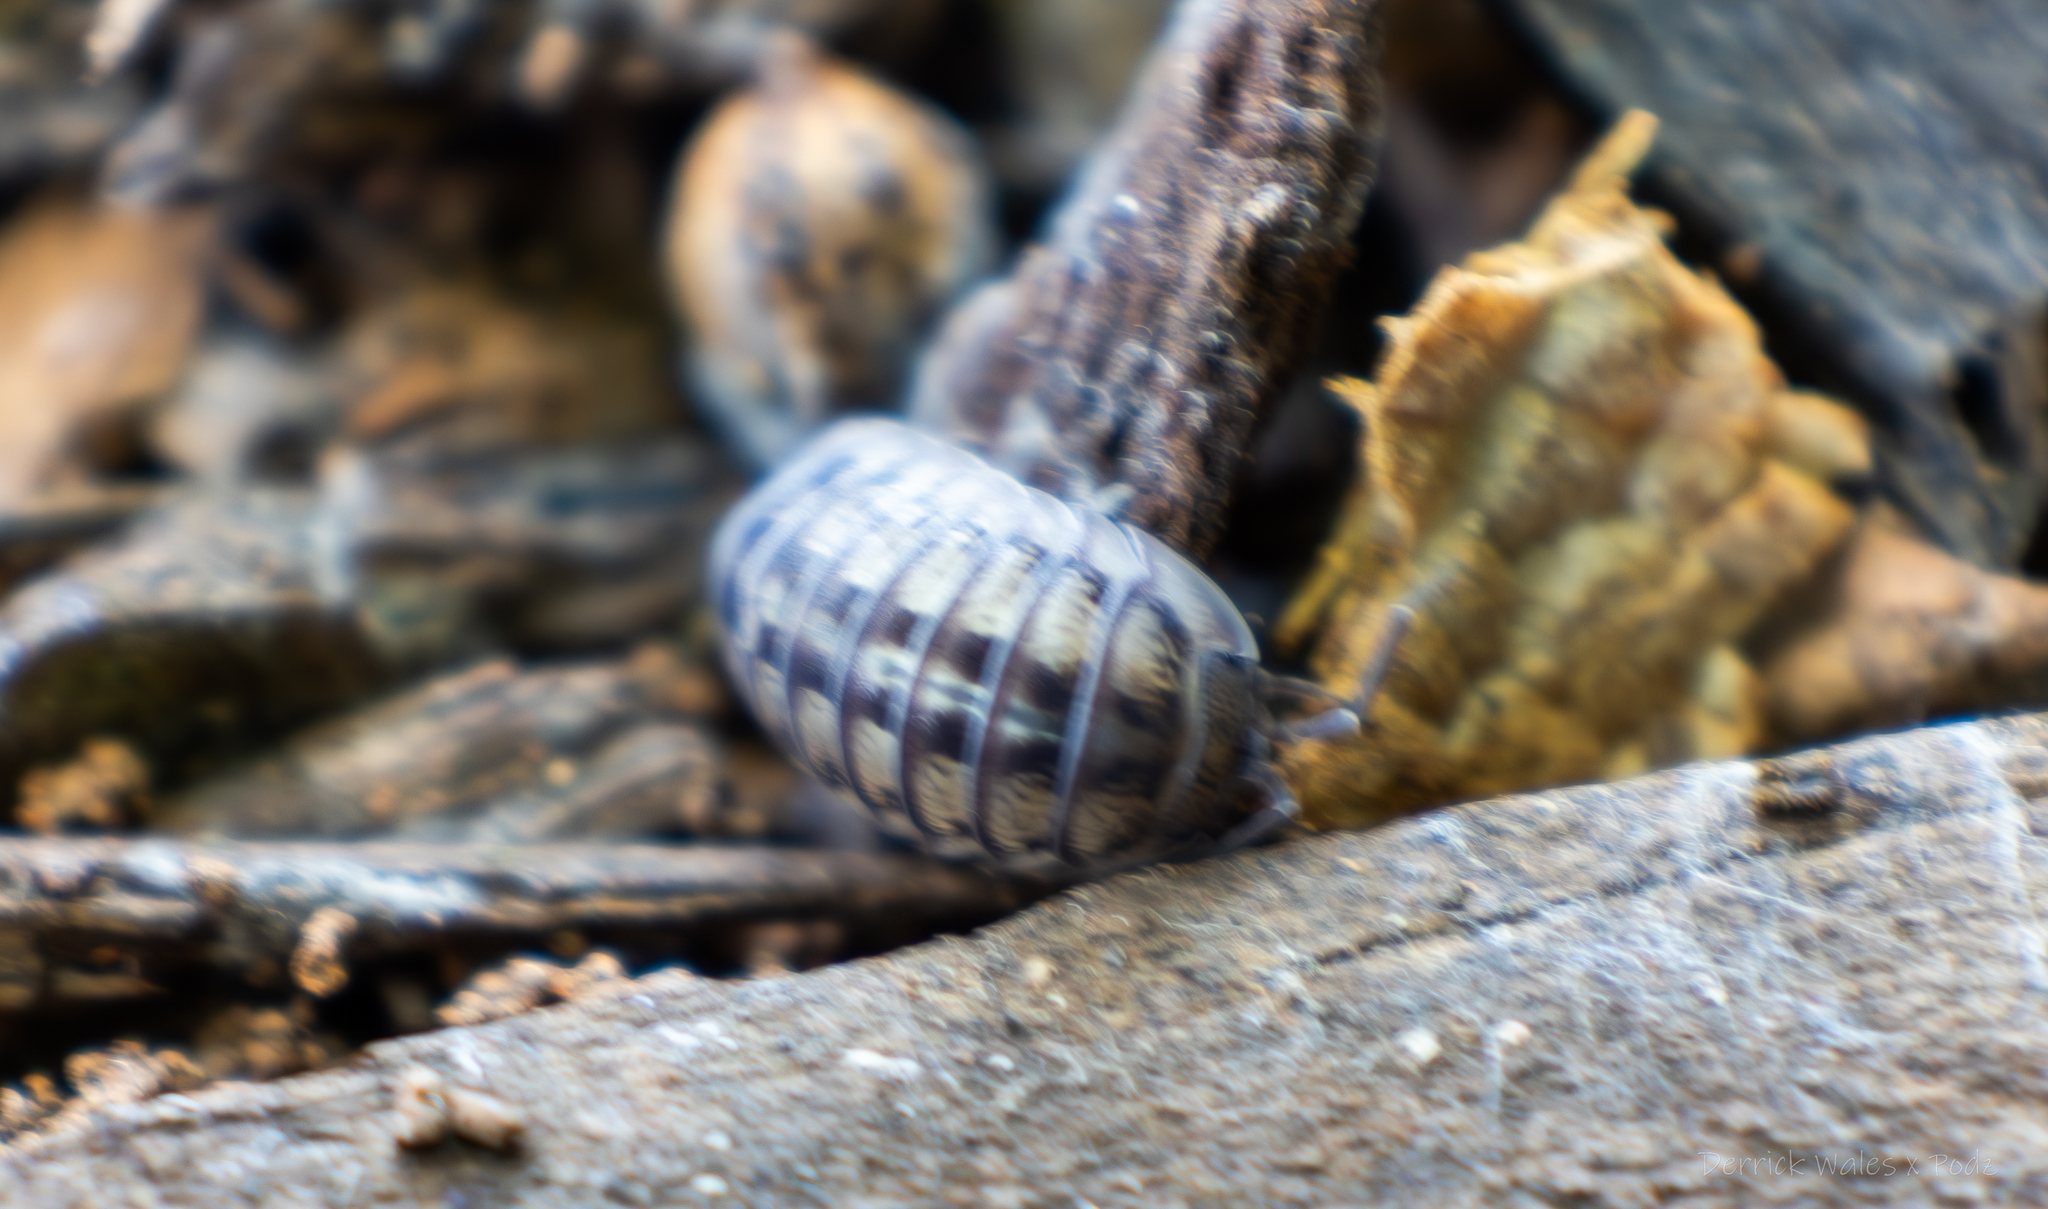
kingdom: Animalia
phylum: Arthropoda
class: Malacostraca
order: Isopoda
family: Armadillidiidae
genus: Armadillidium
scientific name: Armadillidium nasatum
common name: Isopod
